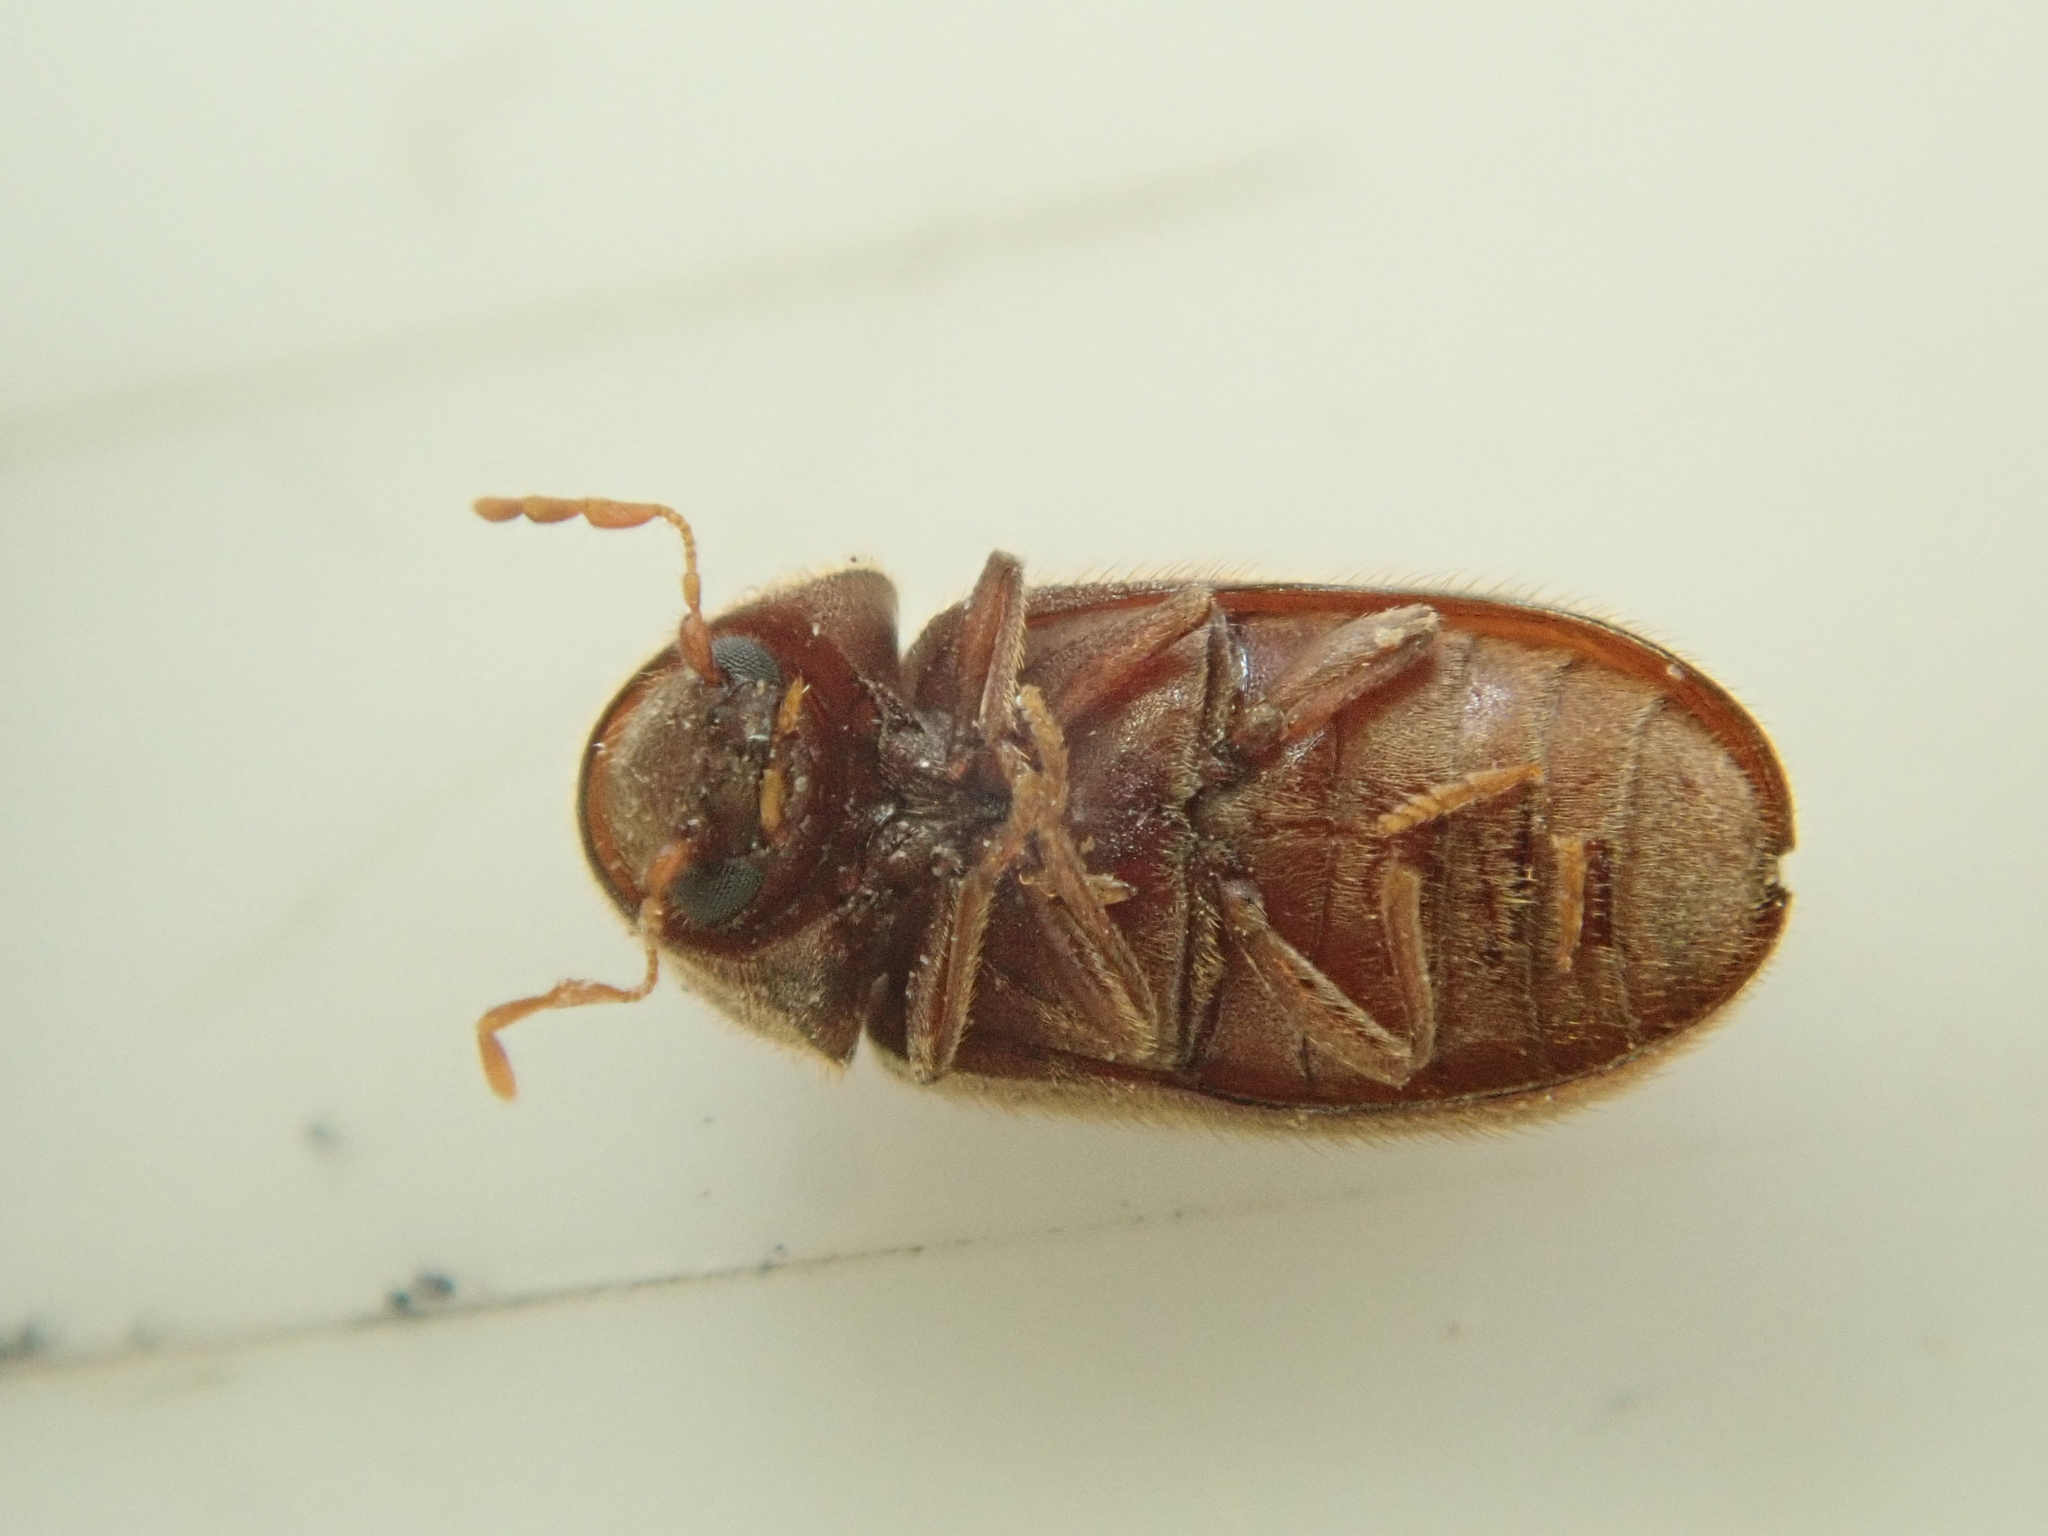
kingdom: Animalia
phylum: Arthropoda
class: Insecta
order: Coleoptera
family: Anobiidae
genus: Stegobium
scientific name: Stegobium paniceum
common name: Drugstore beetle
